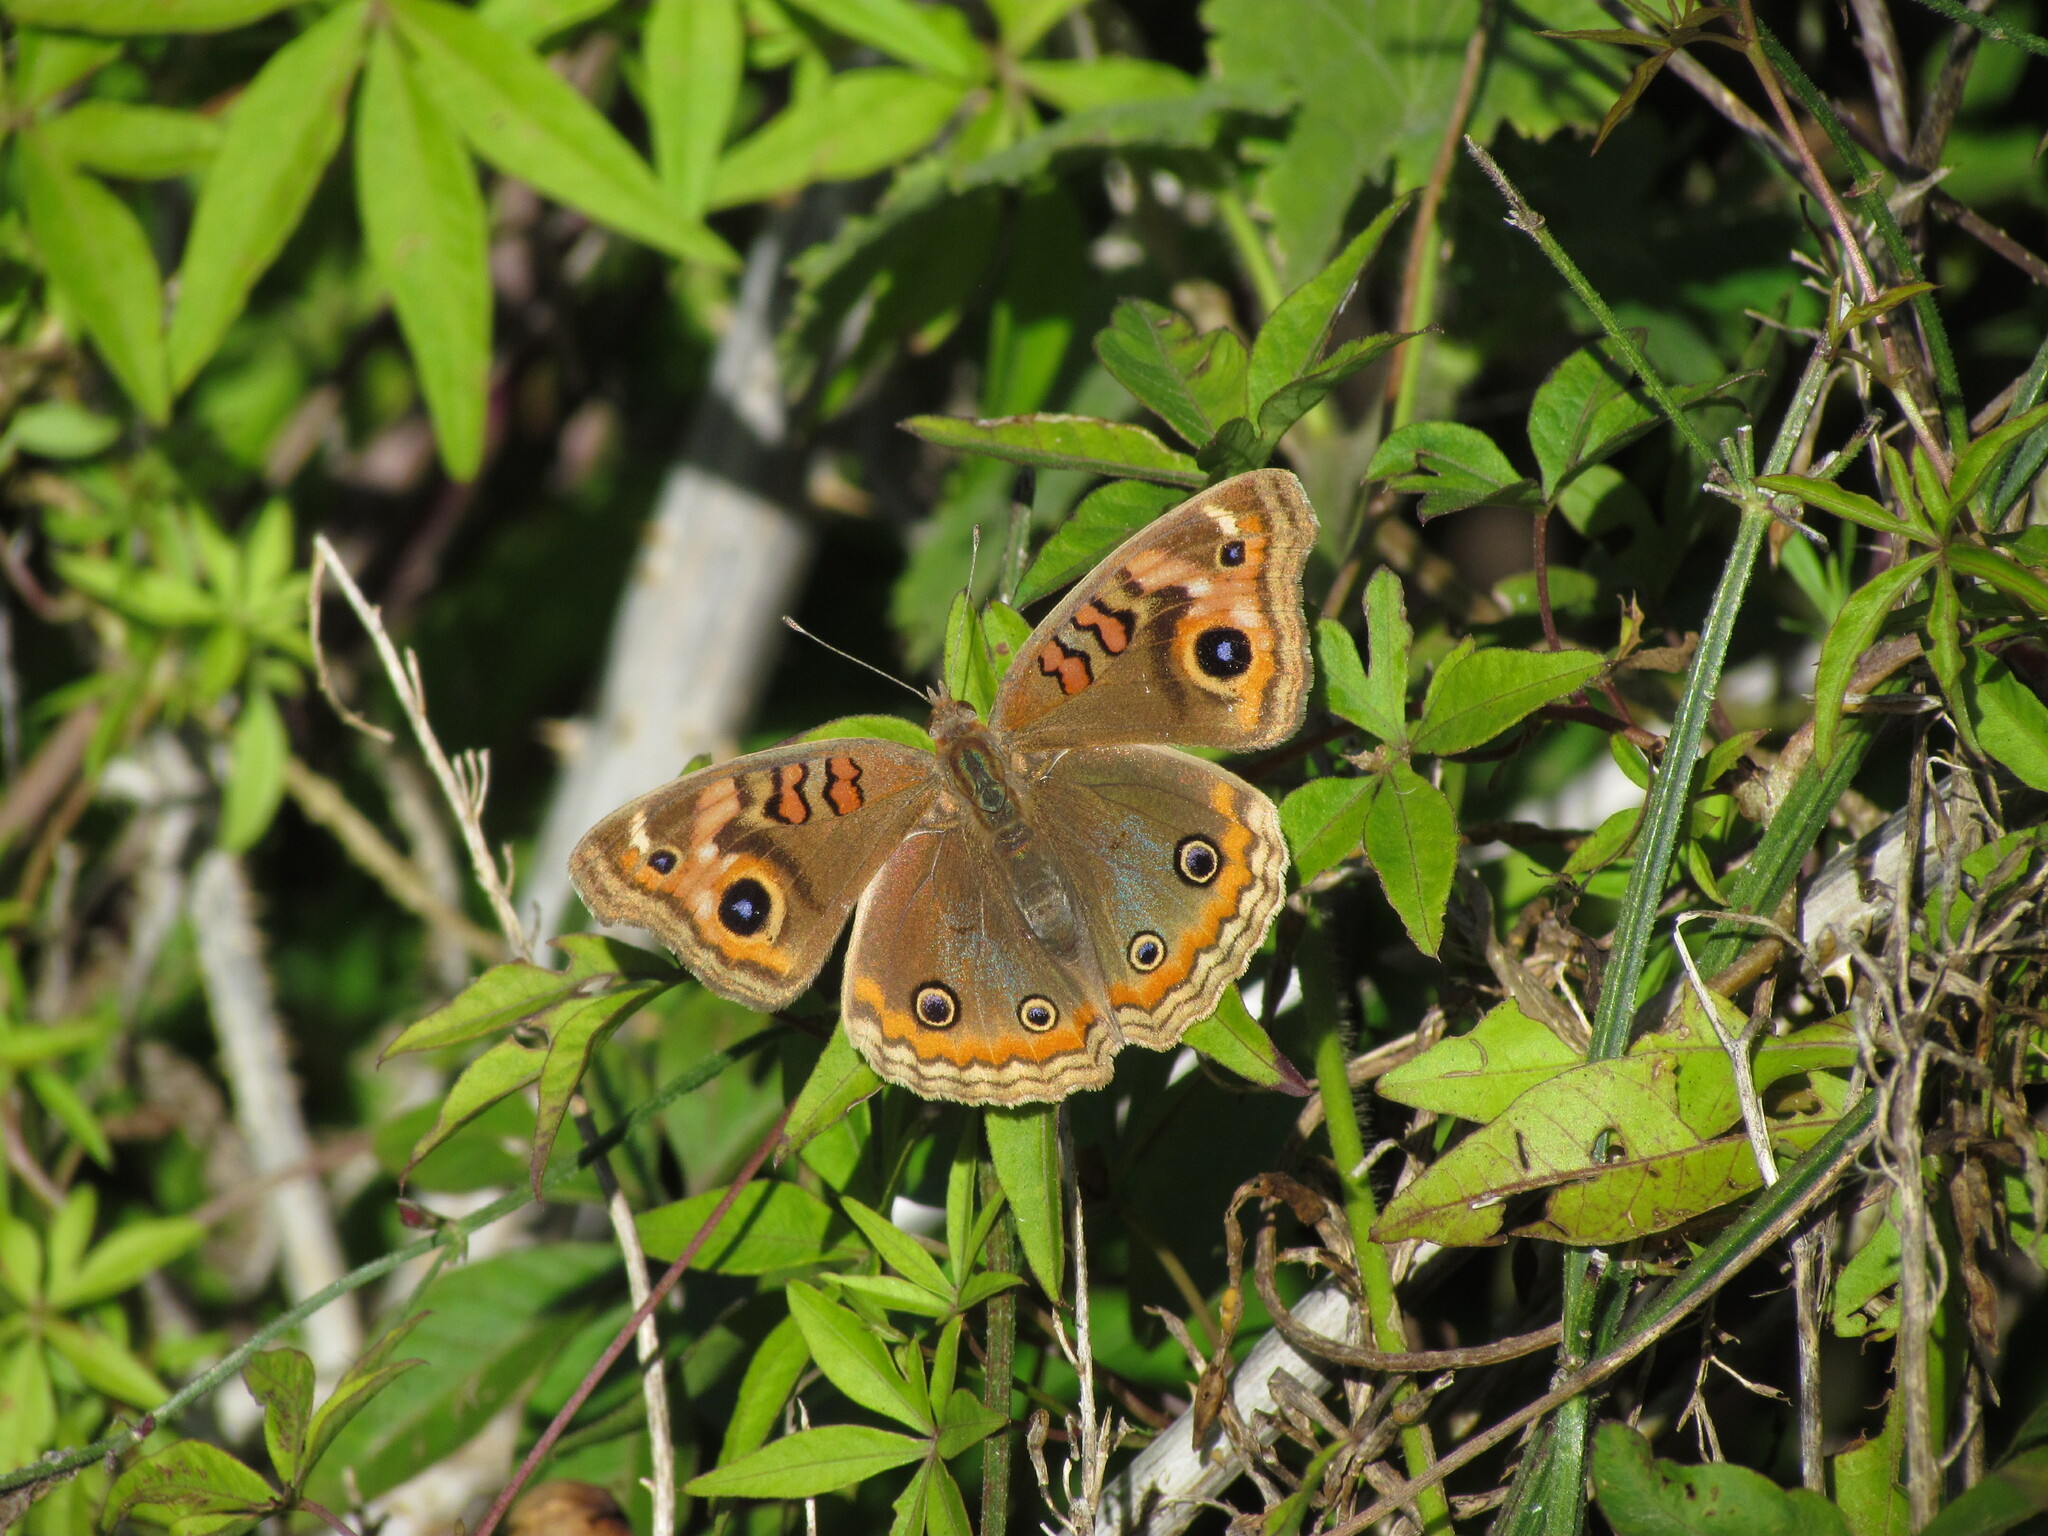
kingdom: Animalia
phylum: Arthropoda
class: Insecta
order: Lepidoptera
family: Nymphalidae
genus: Junonia
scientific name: Junonia lavinia
